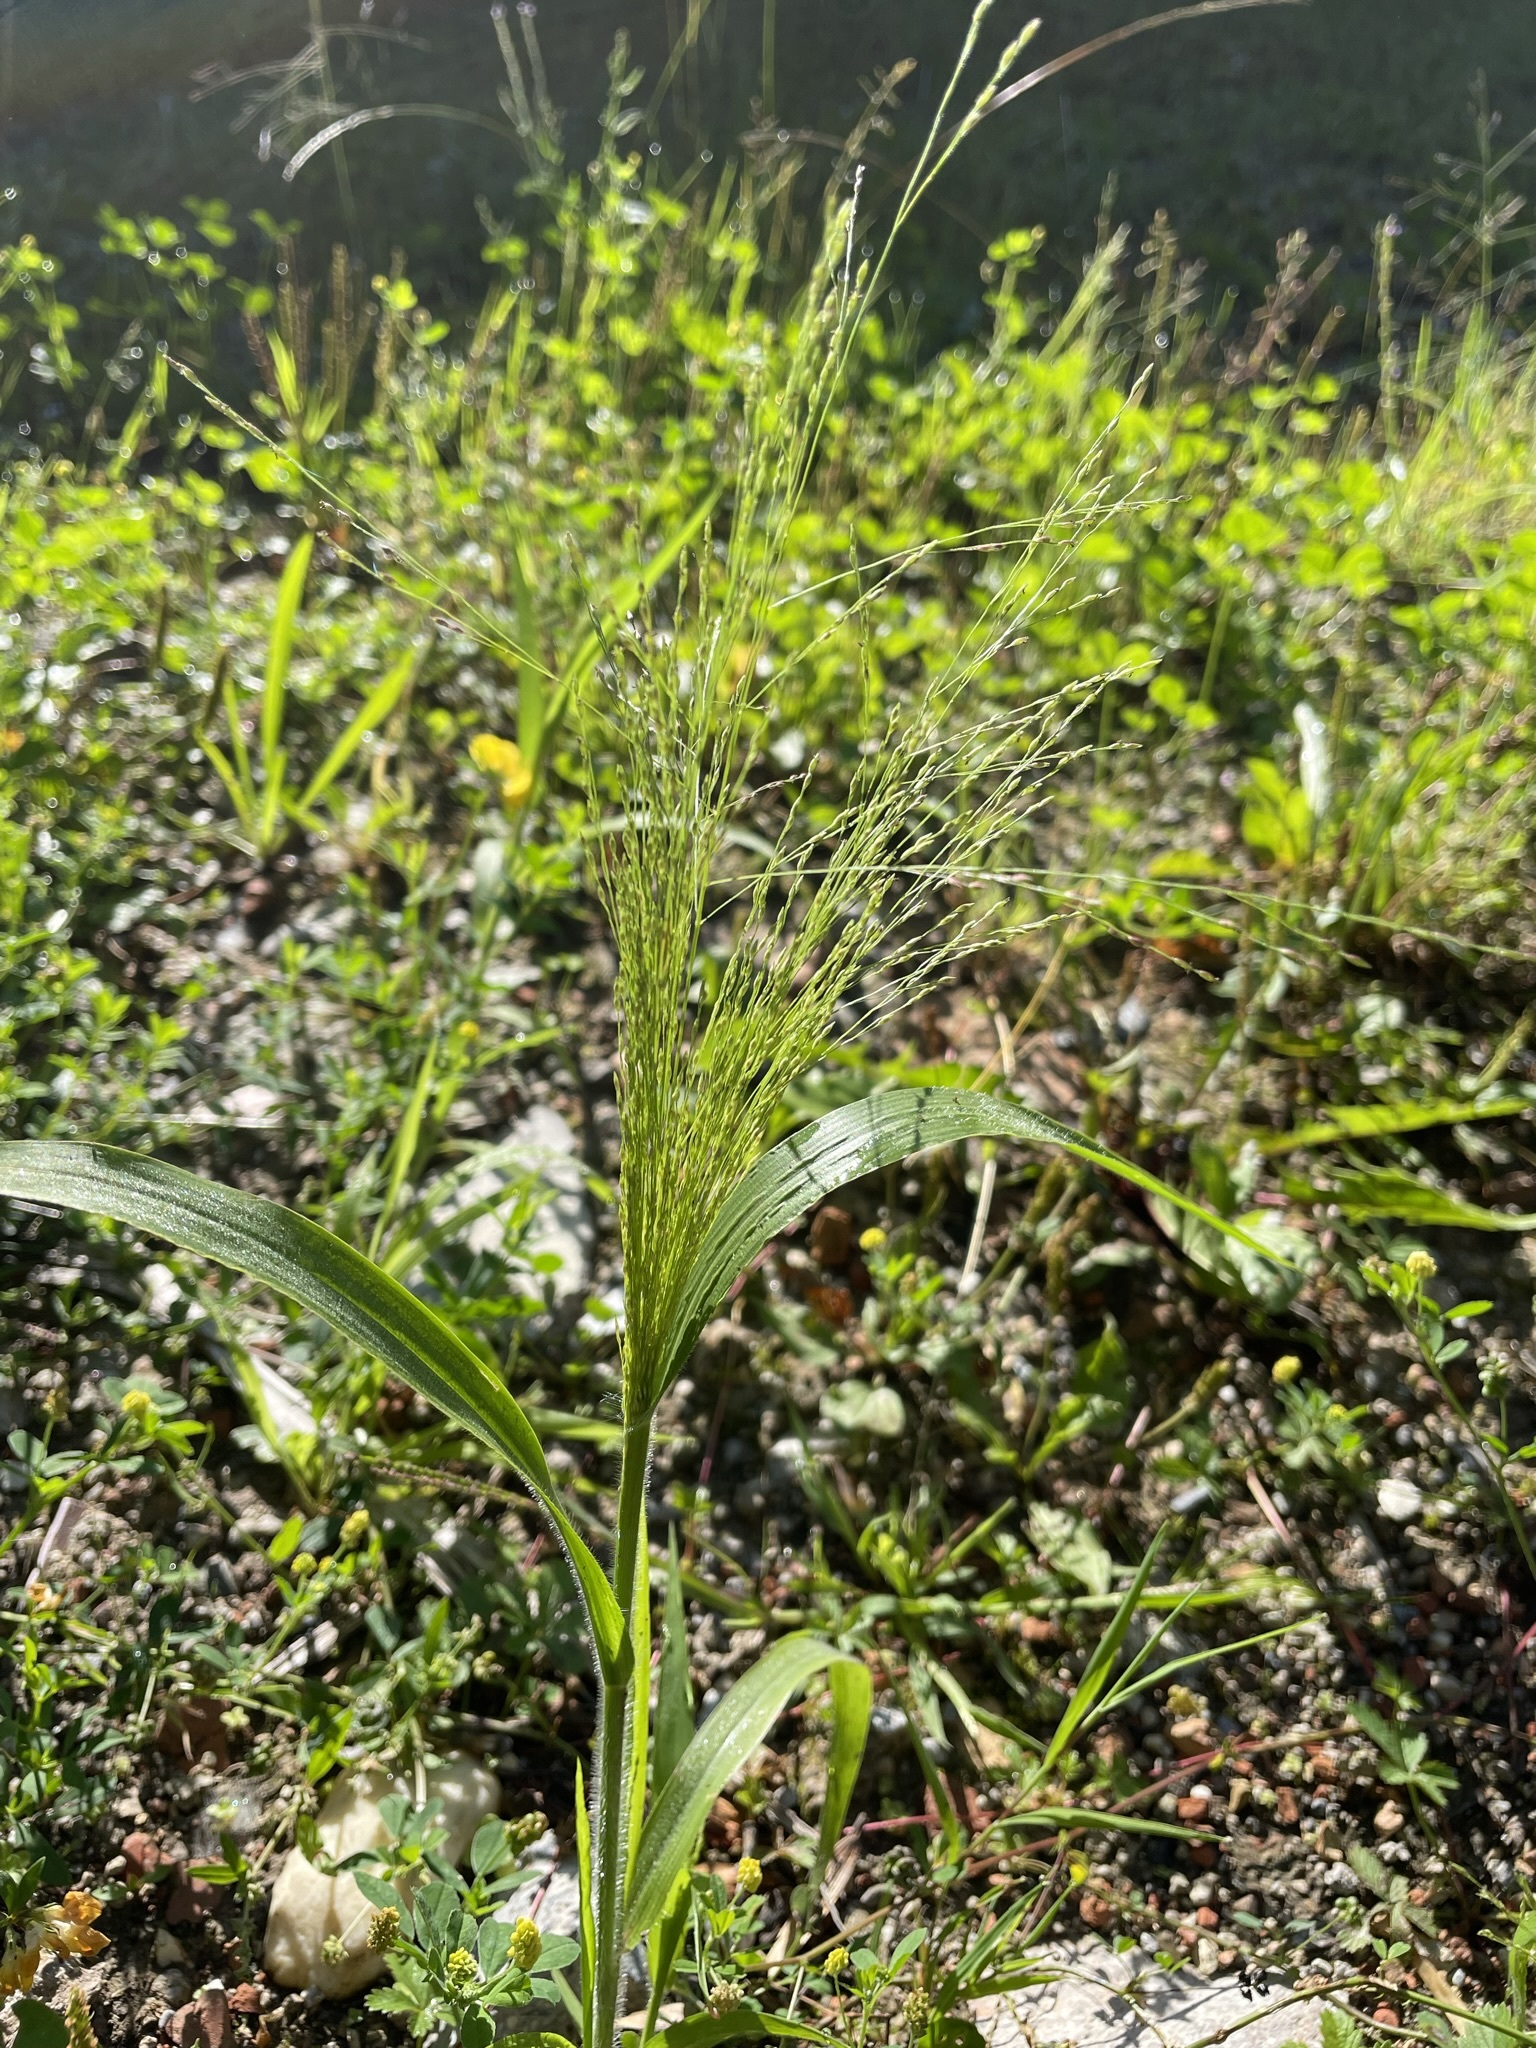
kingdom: Plantae
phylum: Tracheophyta
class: Liliopsida
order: Poales
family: Poaceae
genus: Panicum
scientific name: Panicum capillare
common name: Witch-grass
